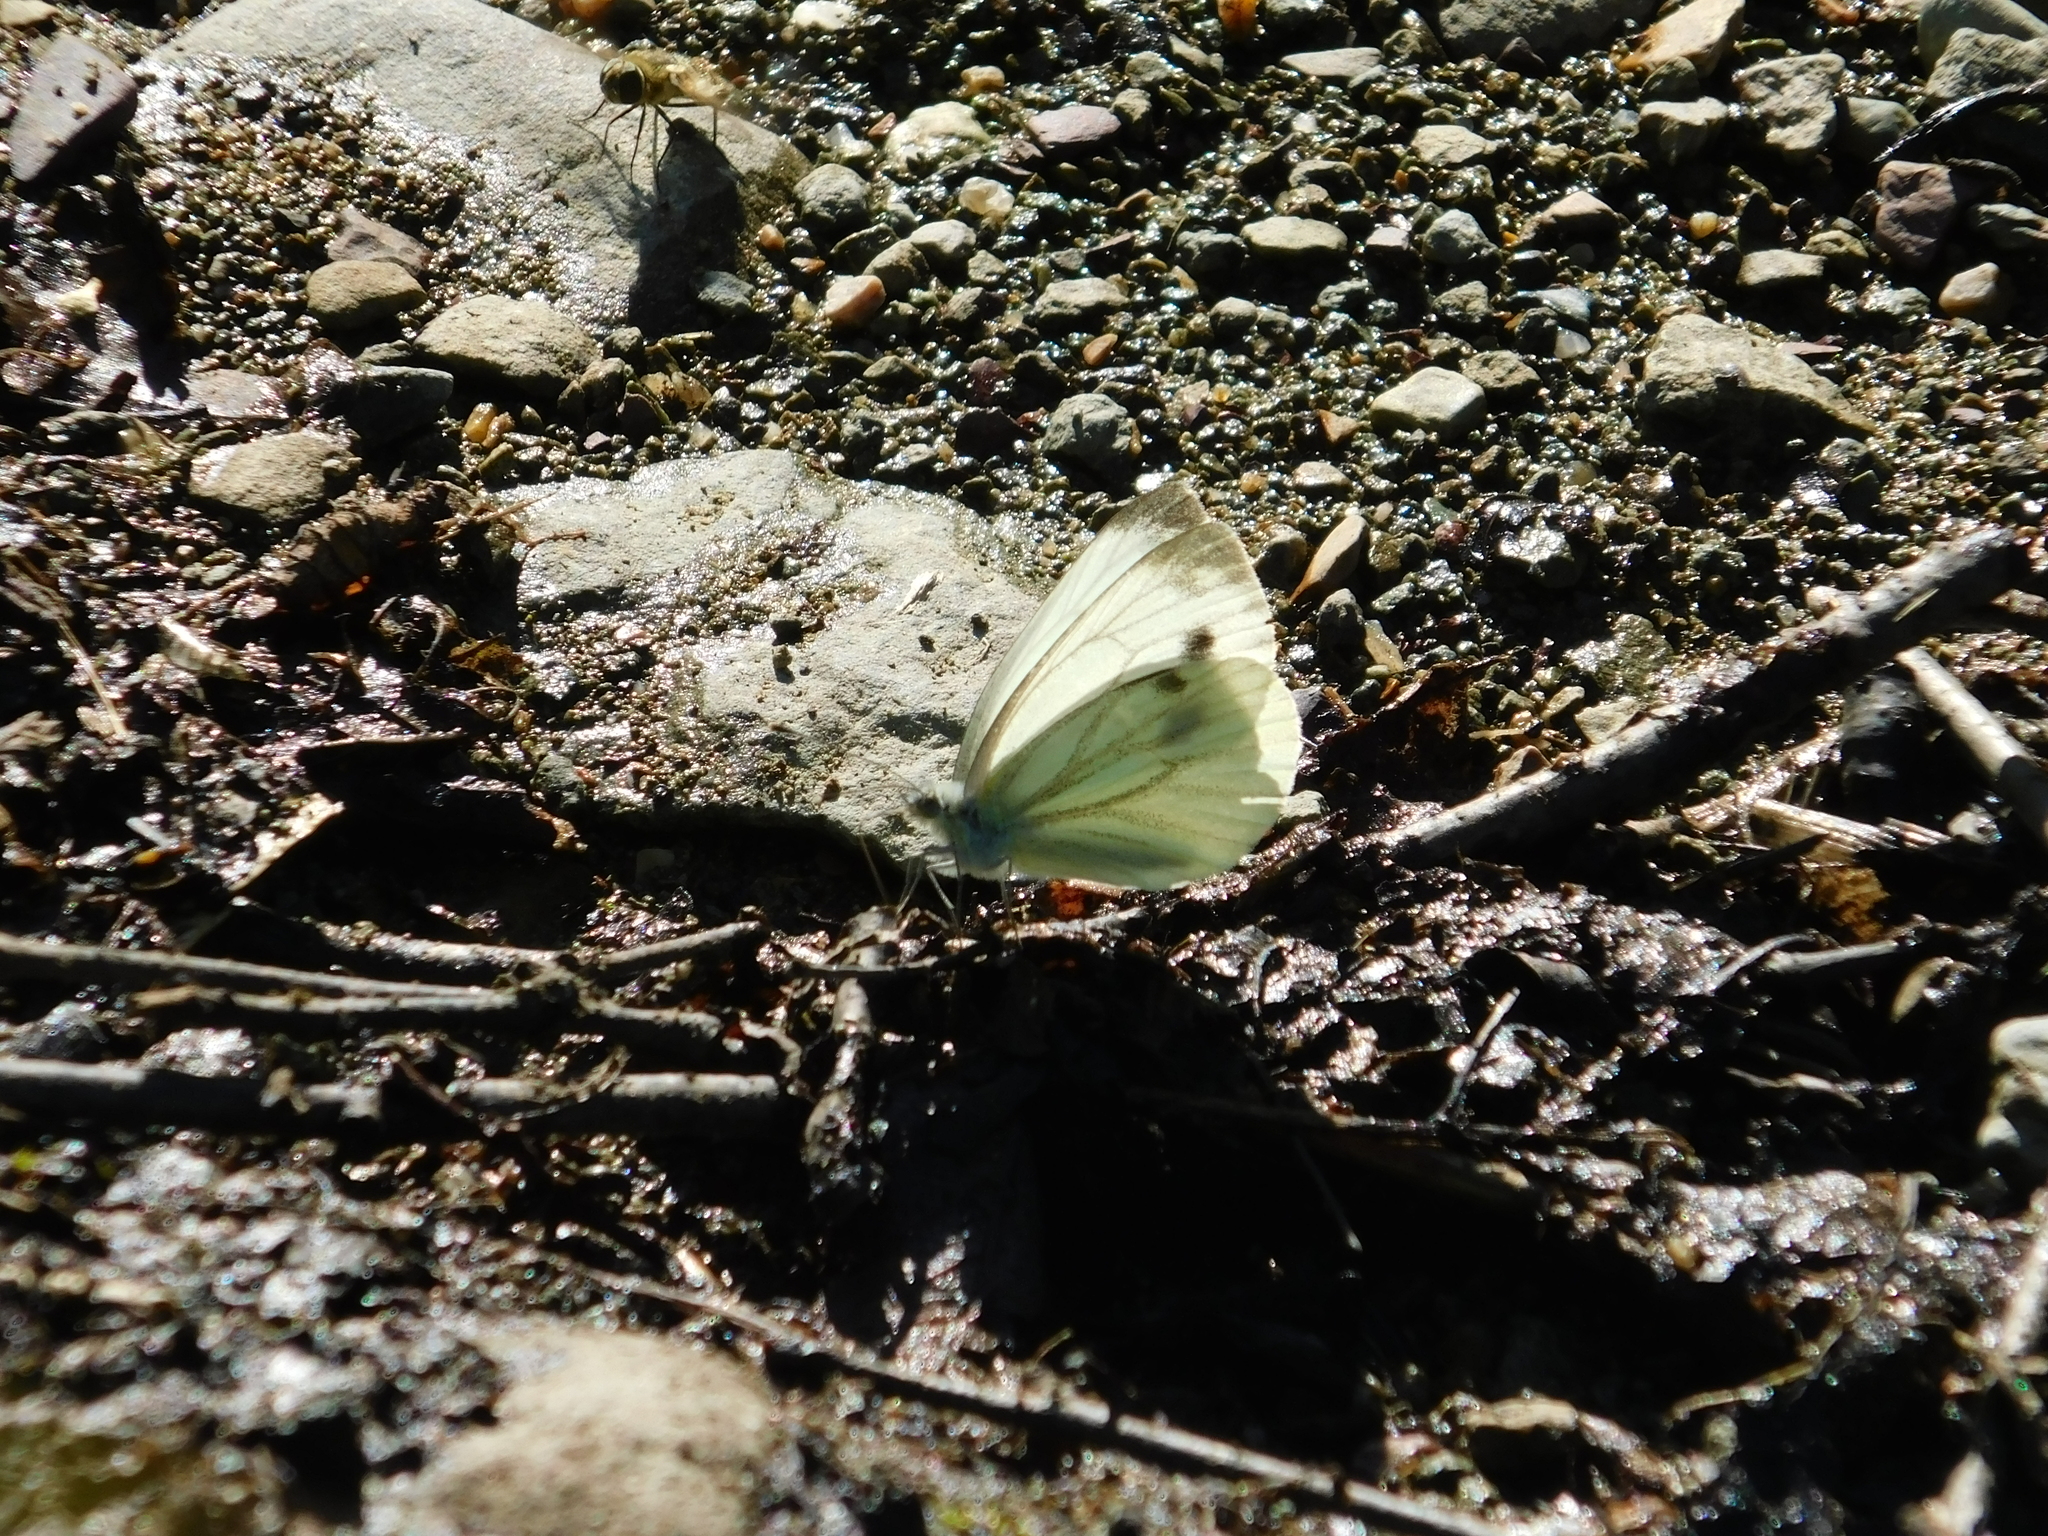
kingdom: Animalia
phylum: Arthropoda
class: Insecta
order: Lepidoptera
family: Pieridae
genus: Pieris
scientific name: Pieris napi
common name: Green-veined white
